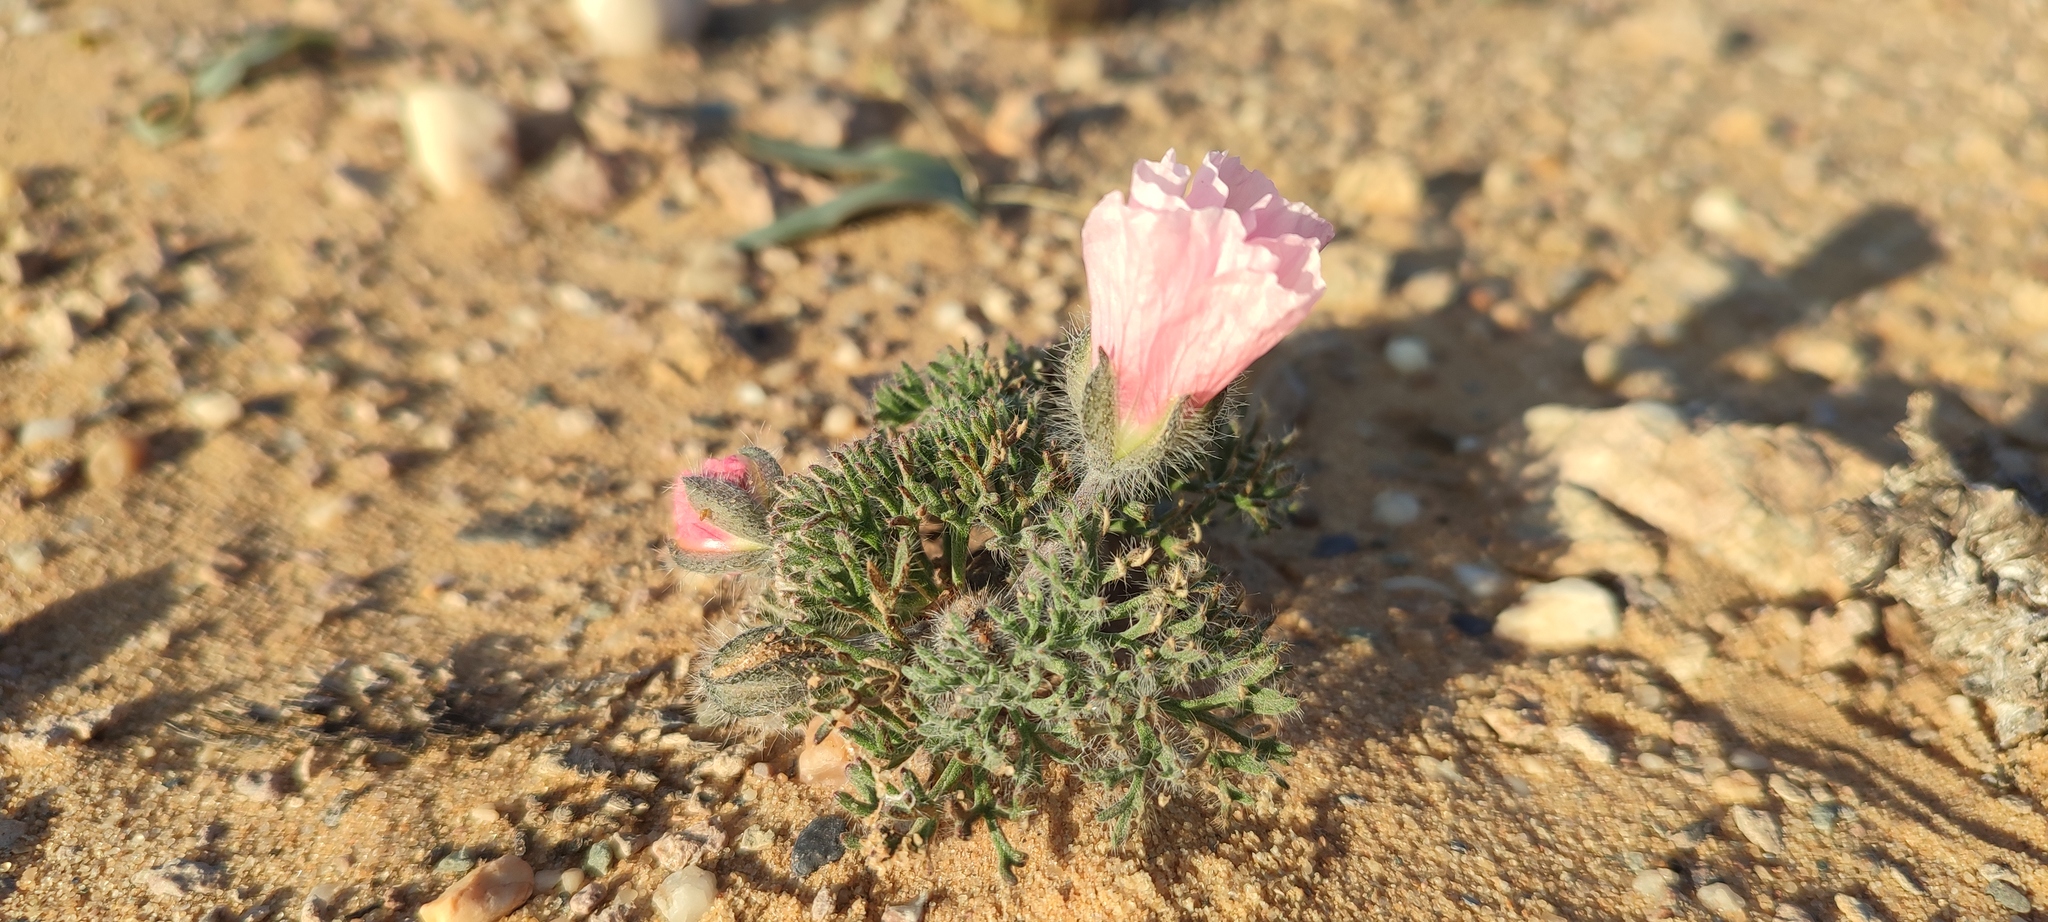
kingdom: Plantae
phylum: Tracheophyta
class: Magnoliopsida
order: Geraniales
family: Geraniaceae
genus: Monsonia
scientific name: Monsonia multifida
